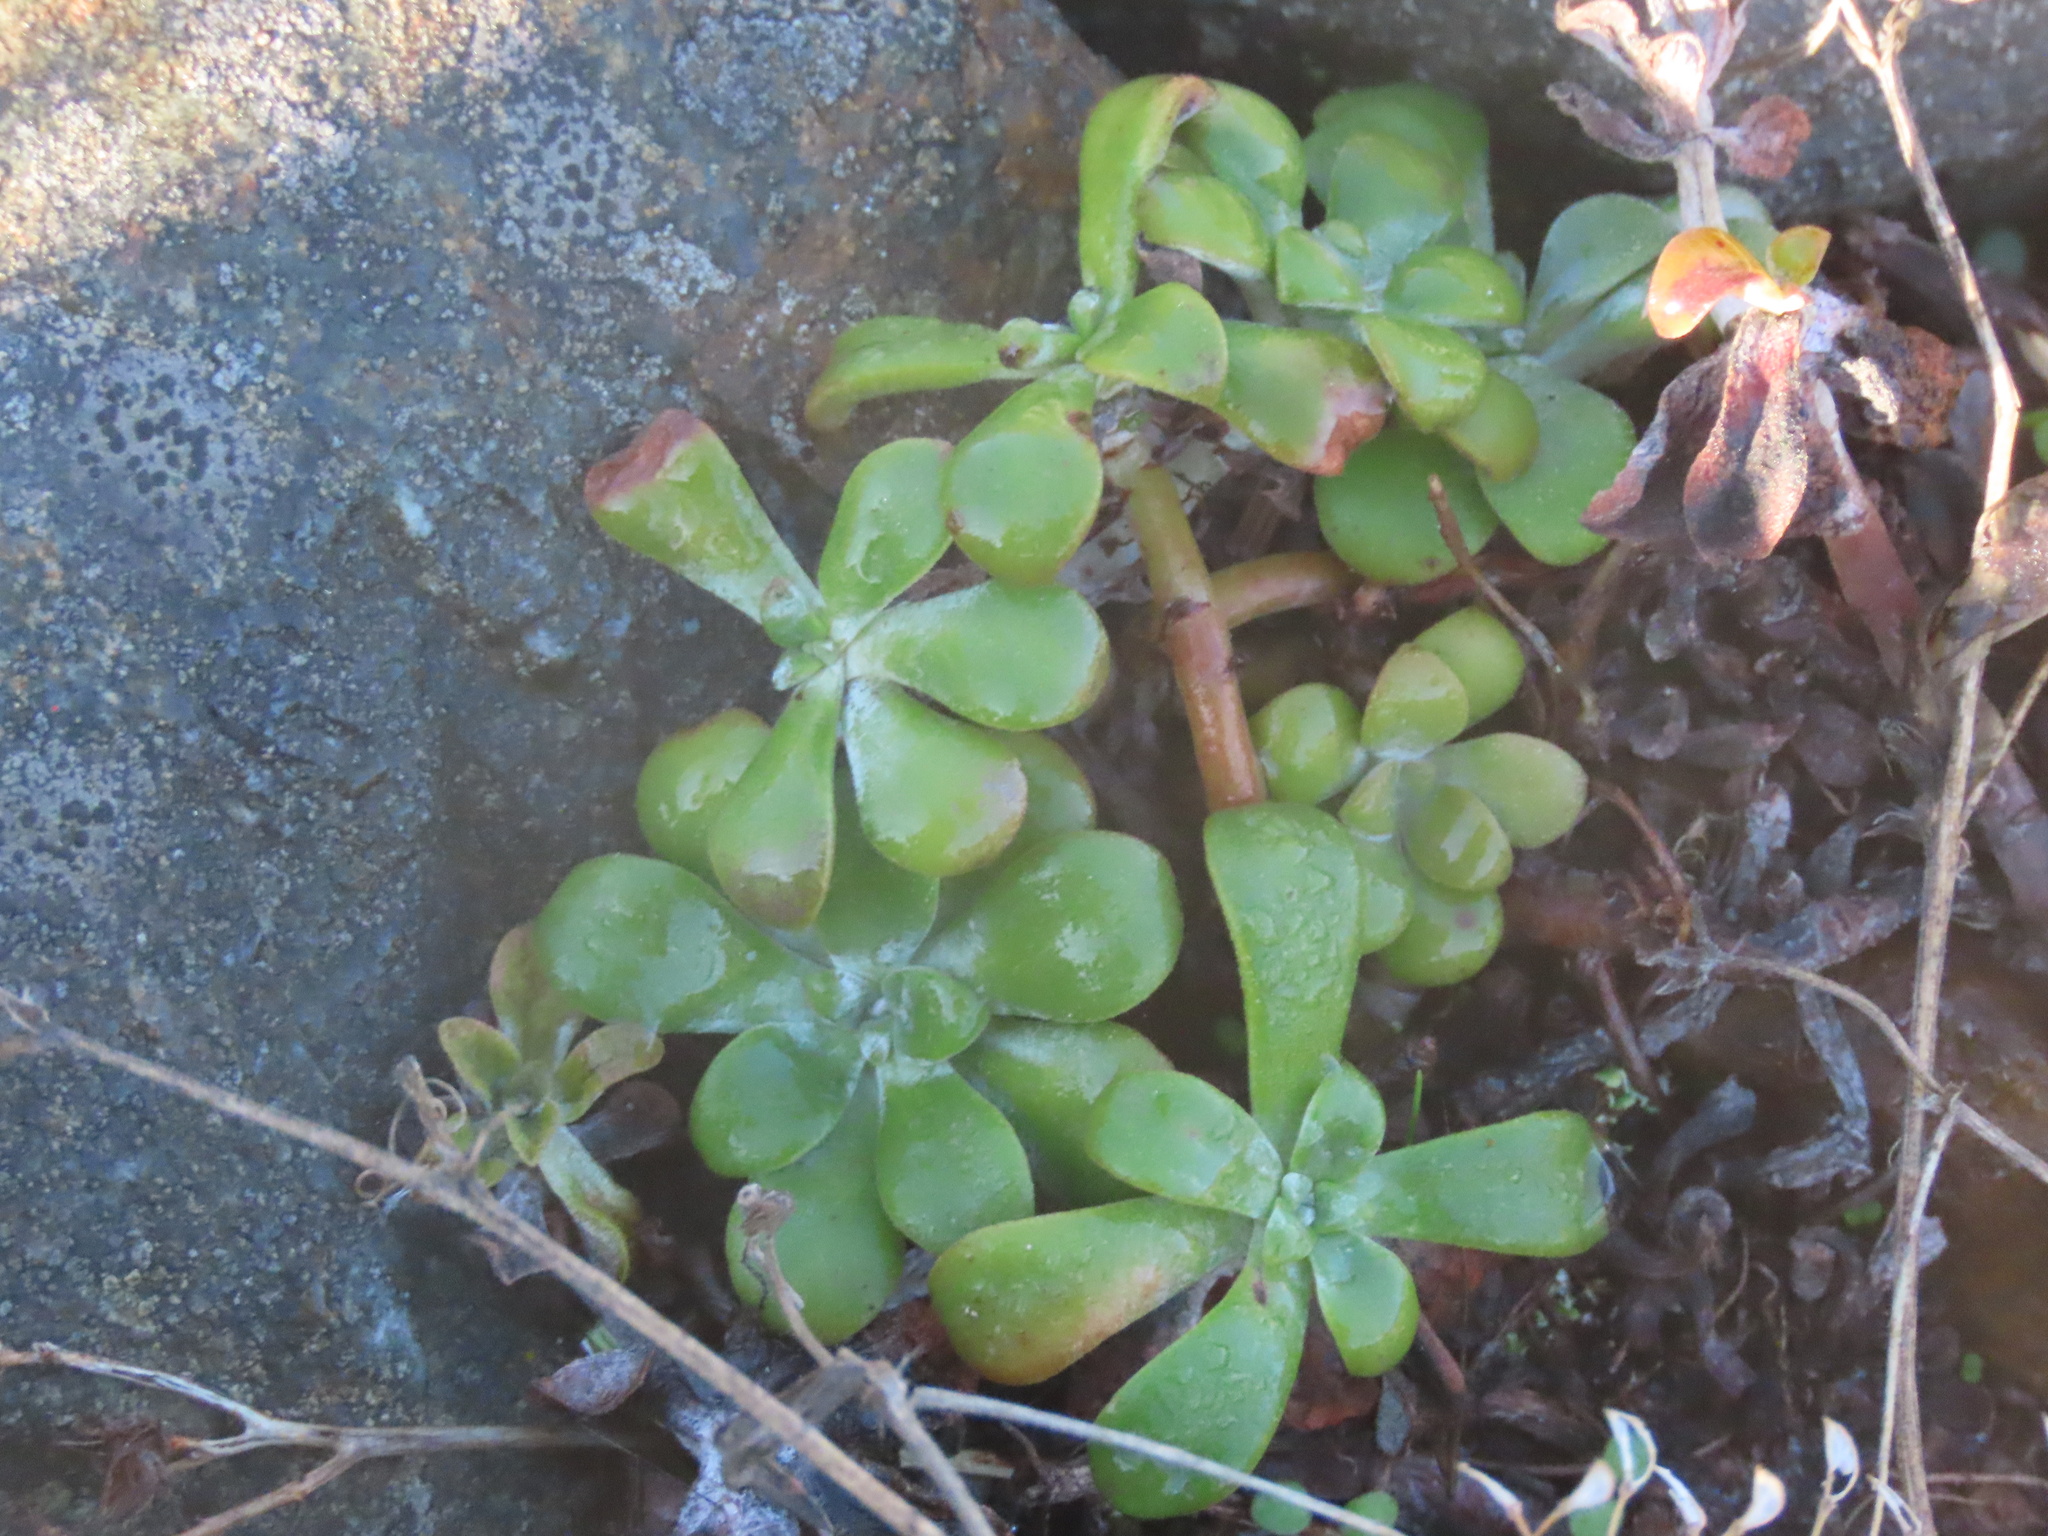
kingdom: Plantae
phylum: Tracheophyta
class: Magnoliopsida
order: Saxifragales
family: Crassulaceae
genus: Sedum
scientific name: Sedum spathulifolium
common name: Colorado stonecrop
